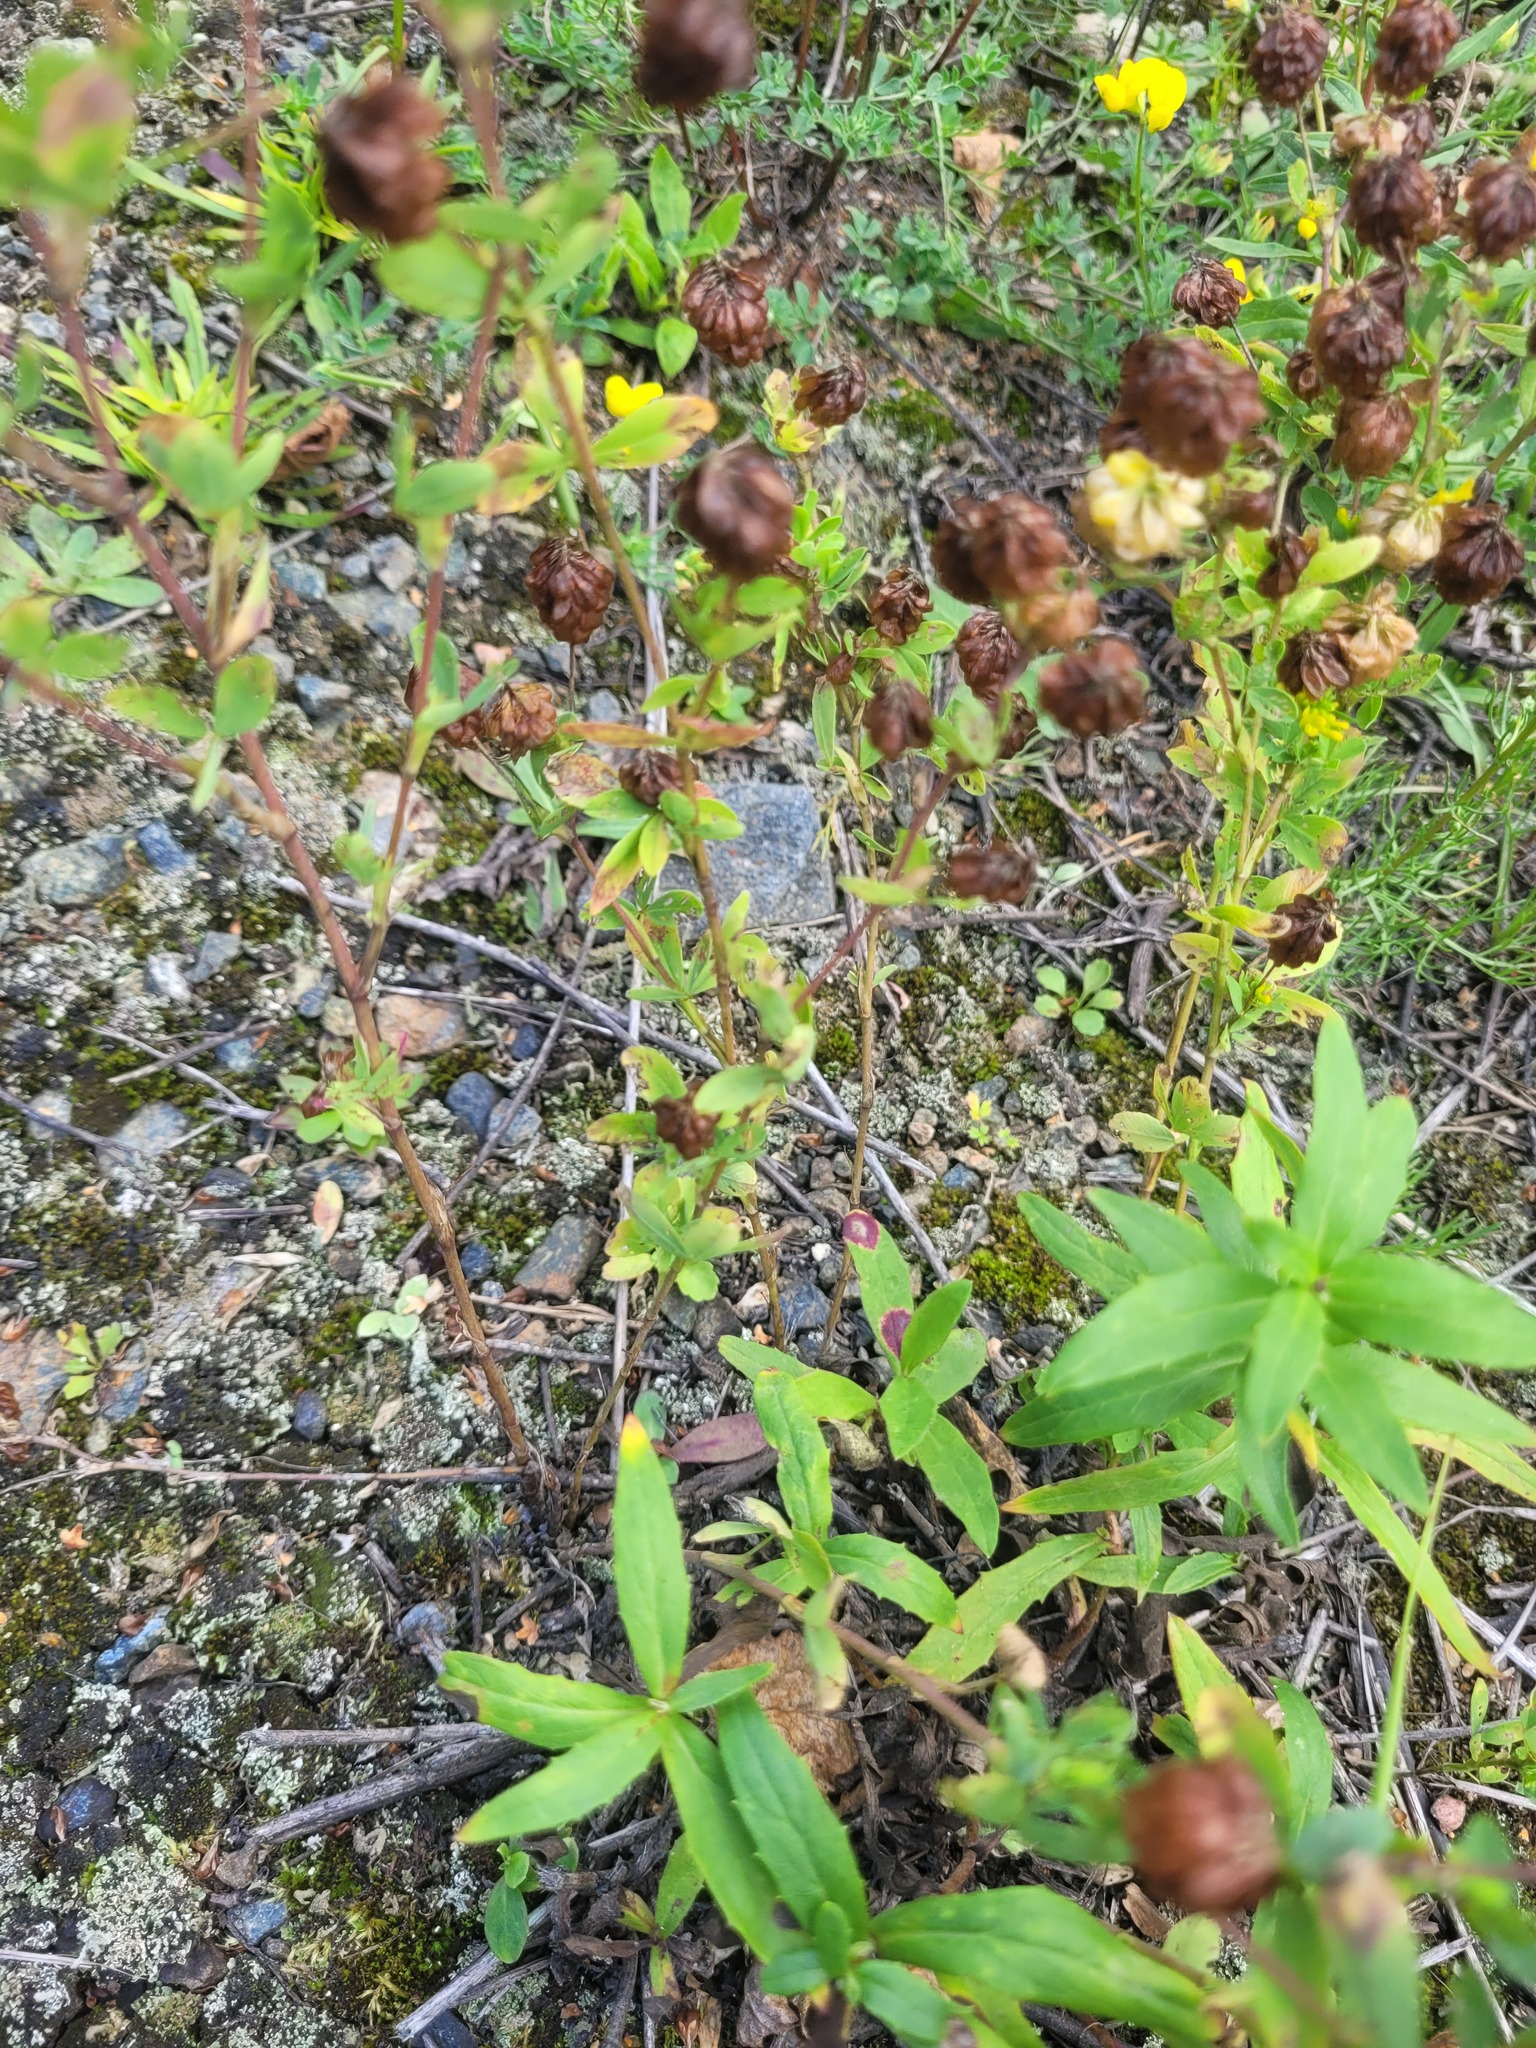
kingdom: Plantae
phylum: Tracheophyta
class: Magnoliopsida
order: Fabales
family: Fabaceae
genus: Trifolium
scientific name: Trifolium aureum
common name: Golden clover
